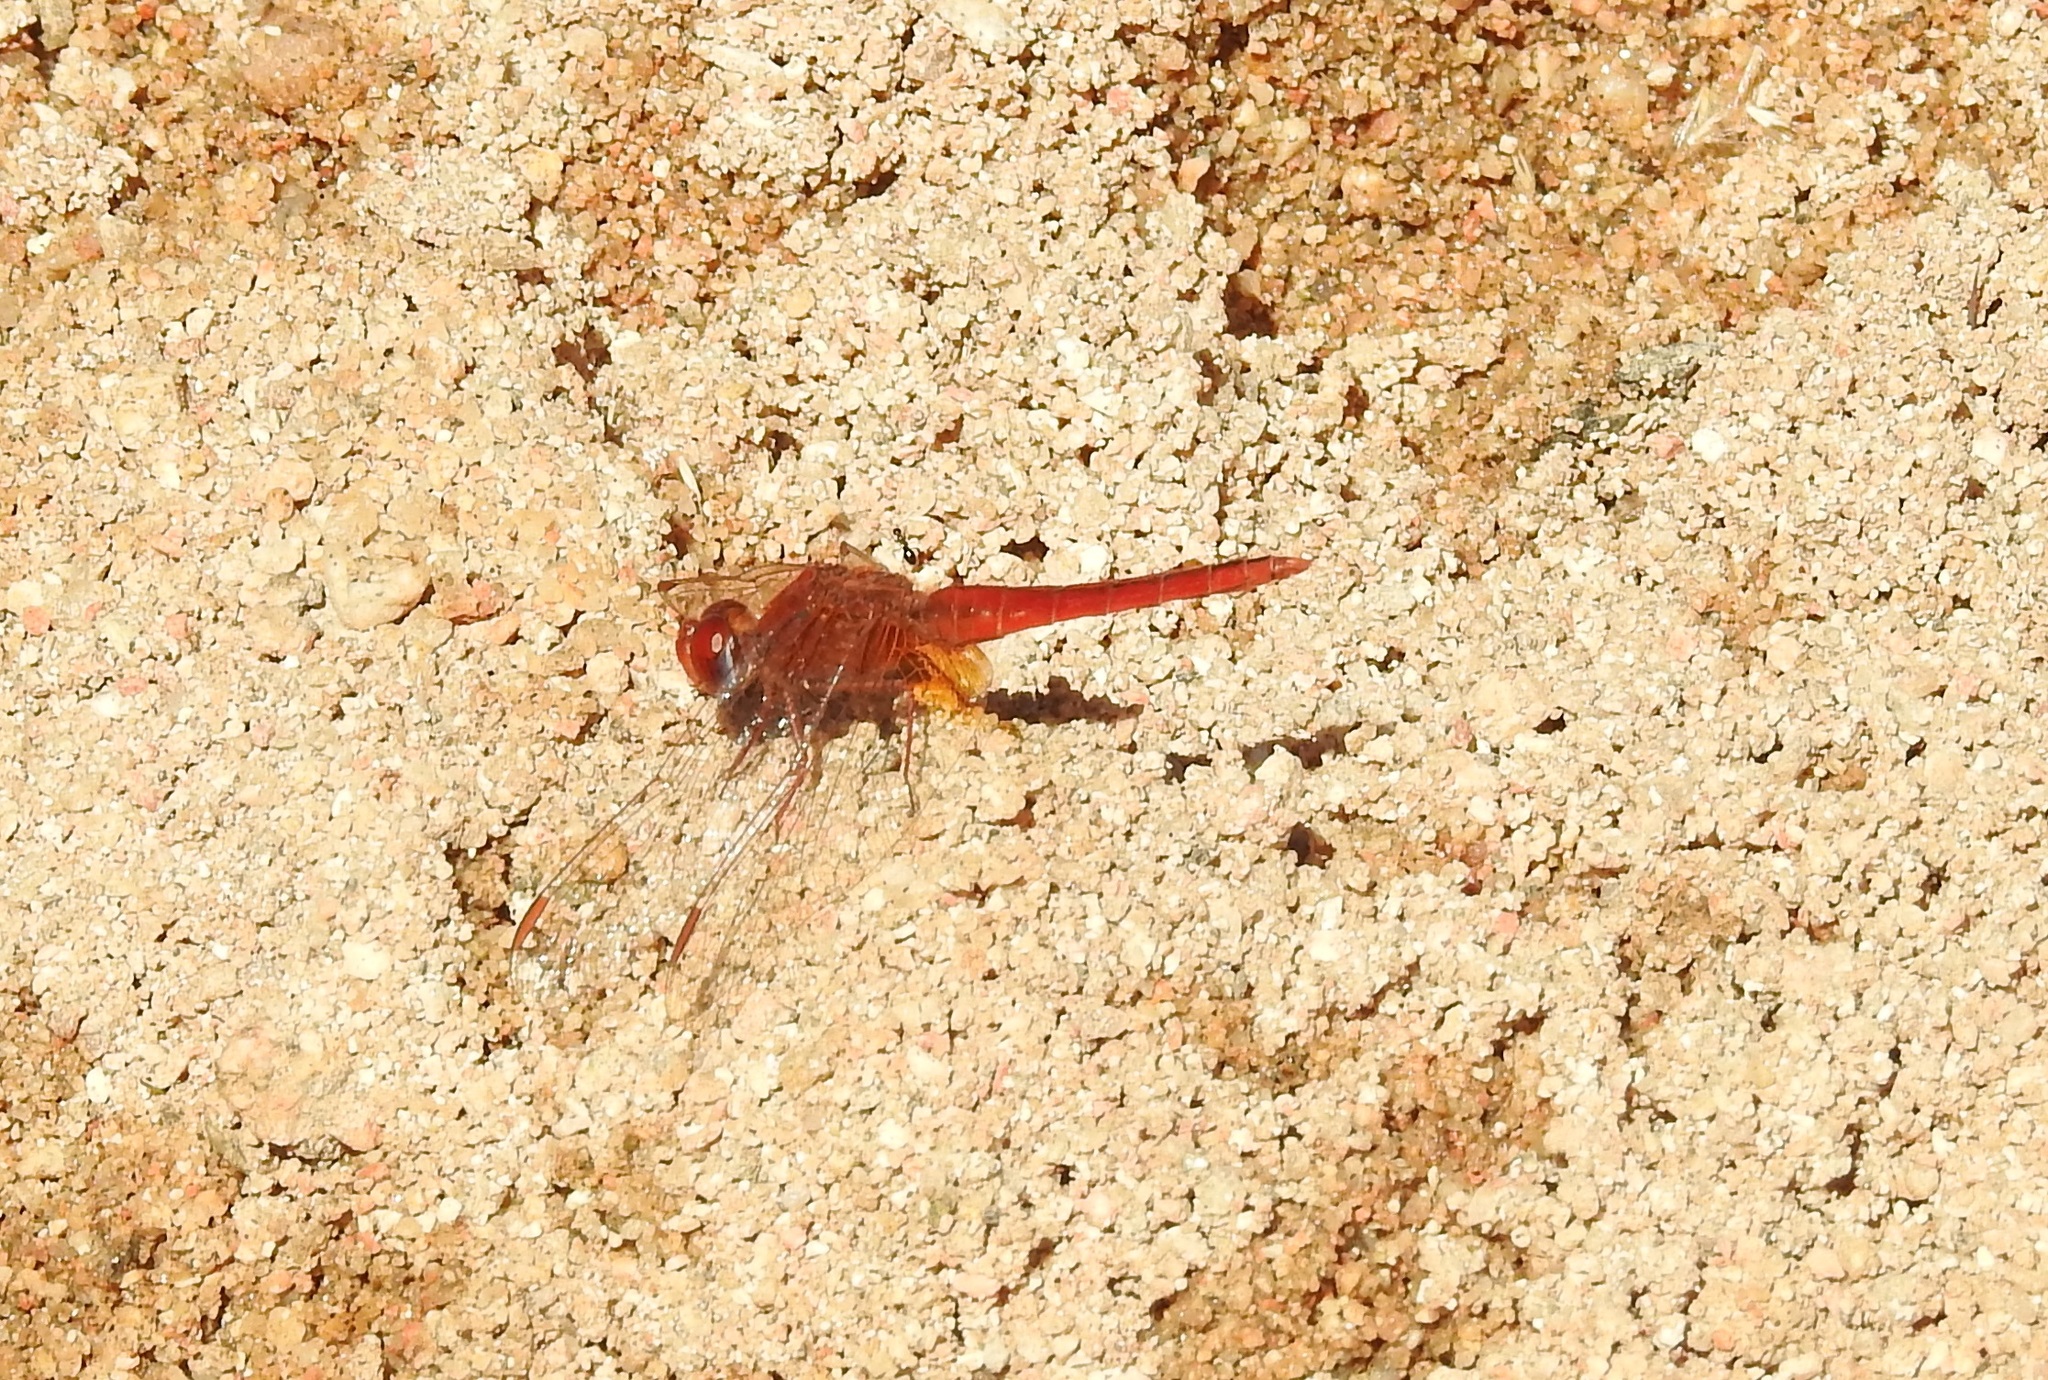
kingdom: Animalia
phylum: Arthropoda
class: Insecta
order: Odonata
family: Libellulidae
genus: Crocothemis
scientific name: Crocothemis erythraea
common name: Scarlet dragonfly
